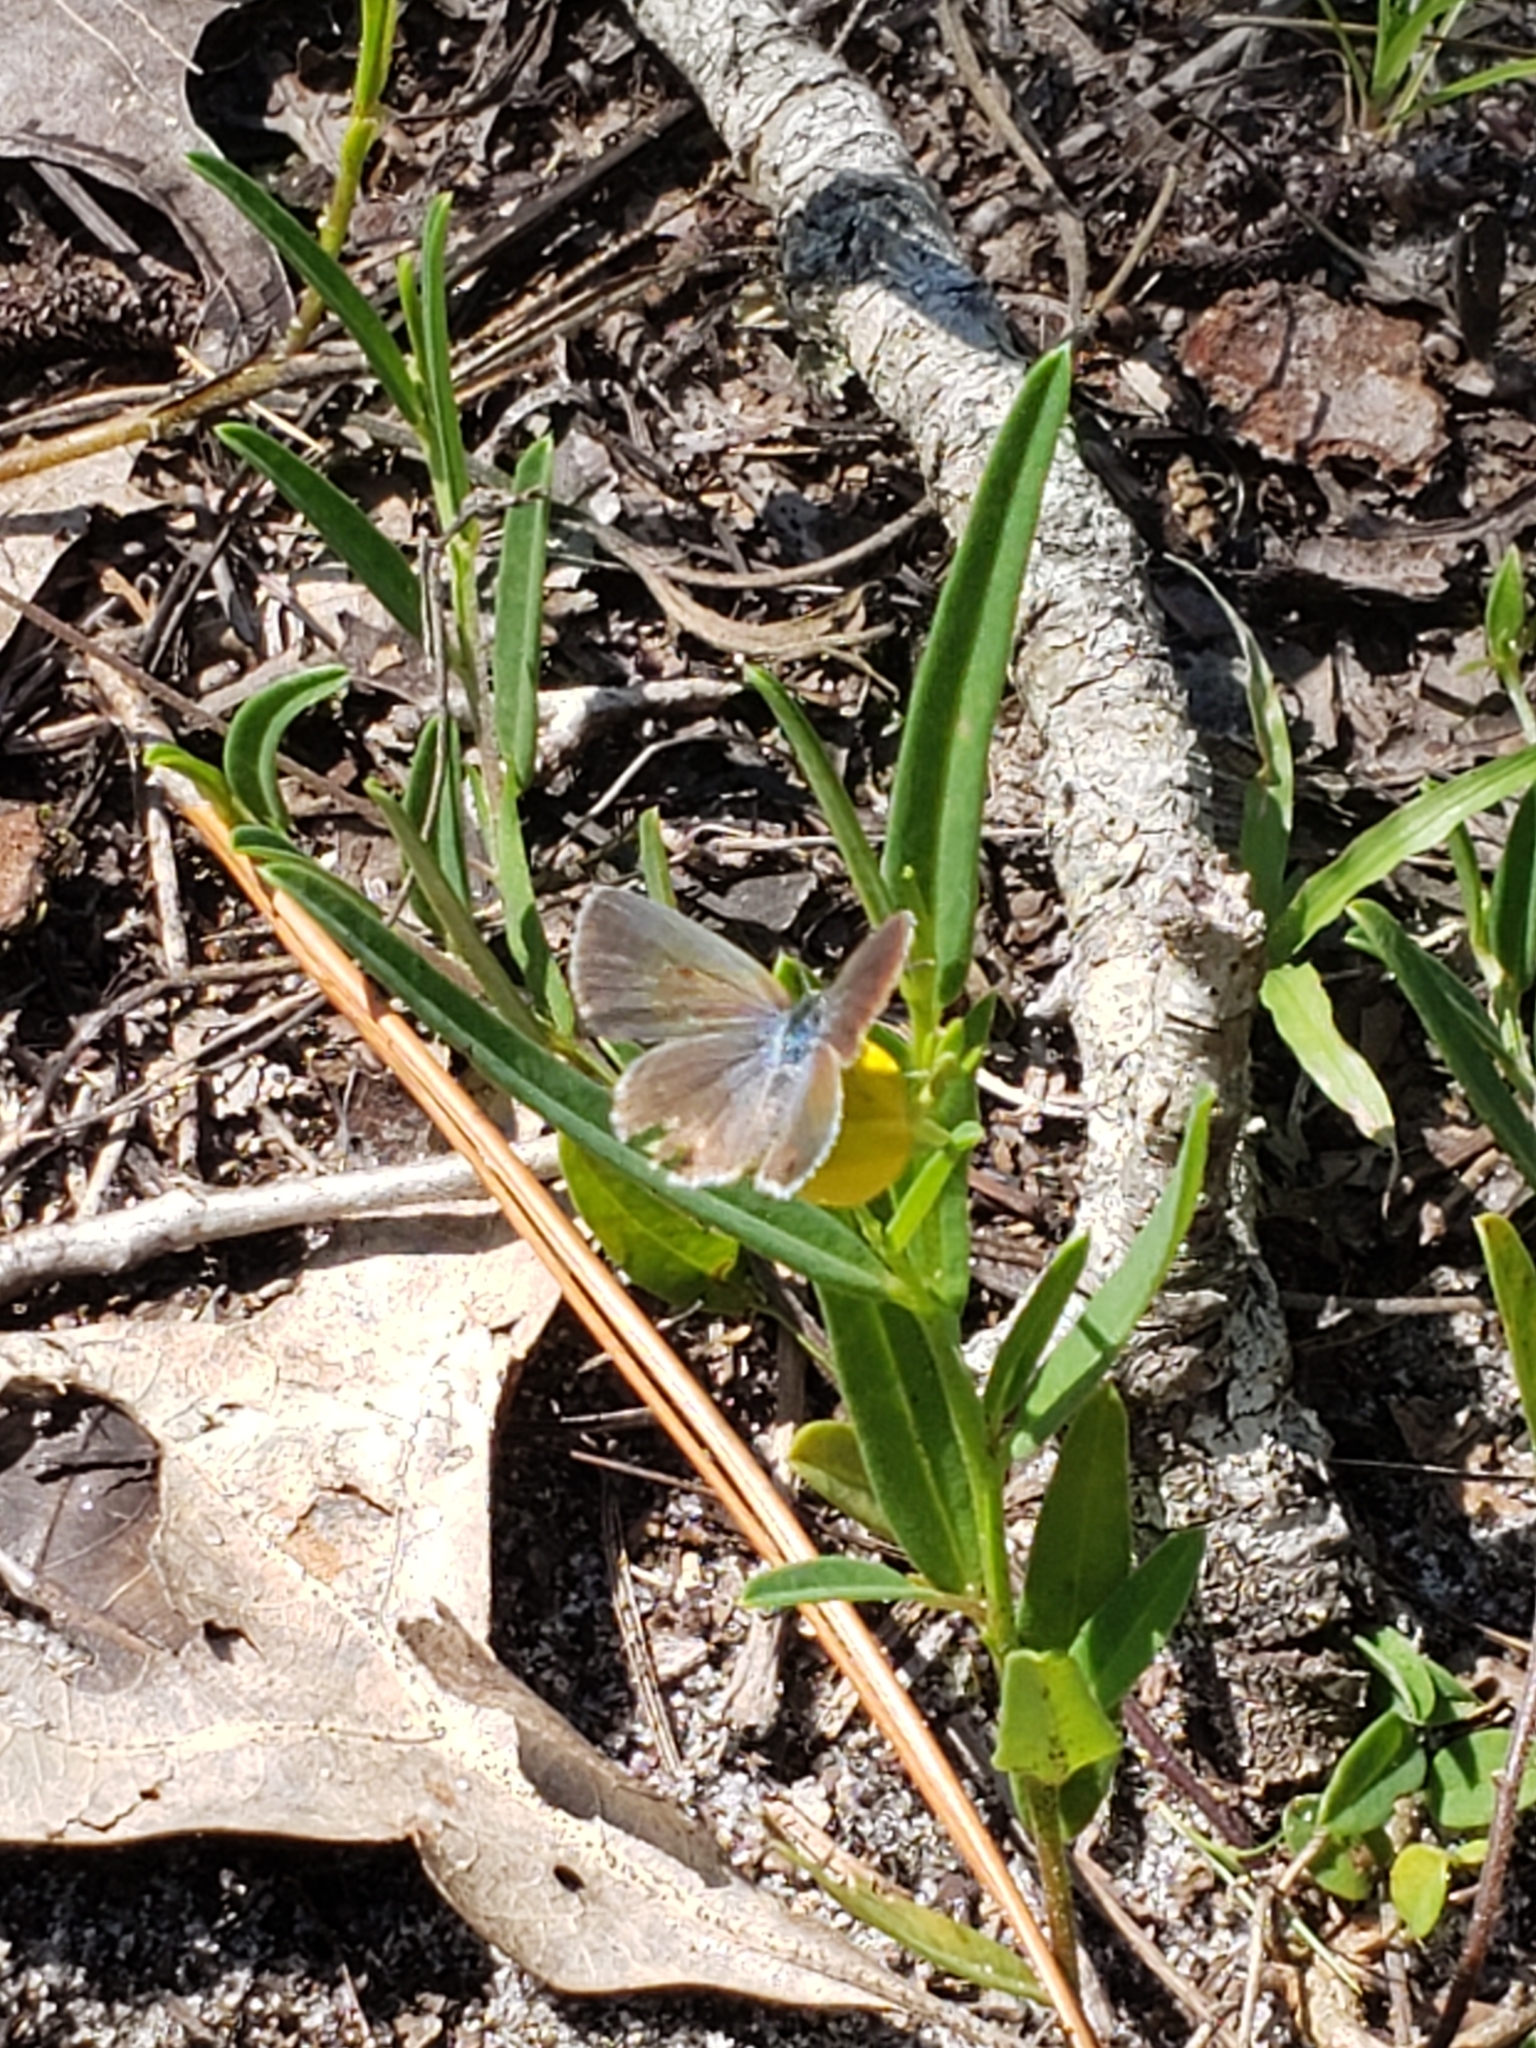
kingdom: Animalia
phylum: Arthropoda
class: Insecta
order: Lepidoptera
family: Lycaenidae
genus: Hemiargus
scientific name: Hemiargus ceraunus
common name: Ceraunus blue
